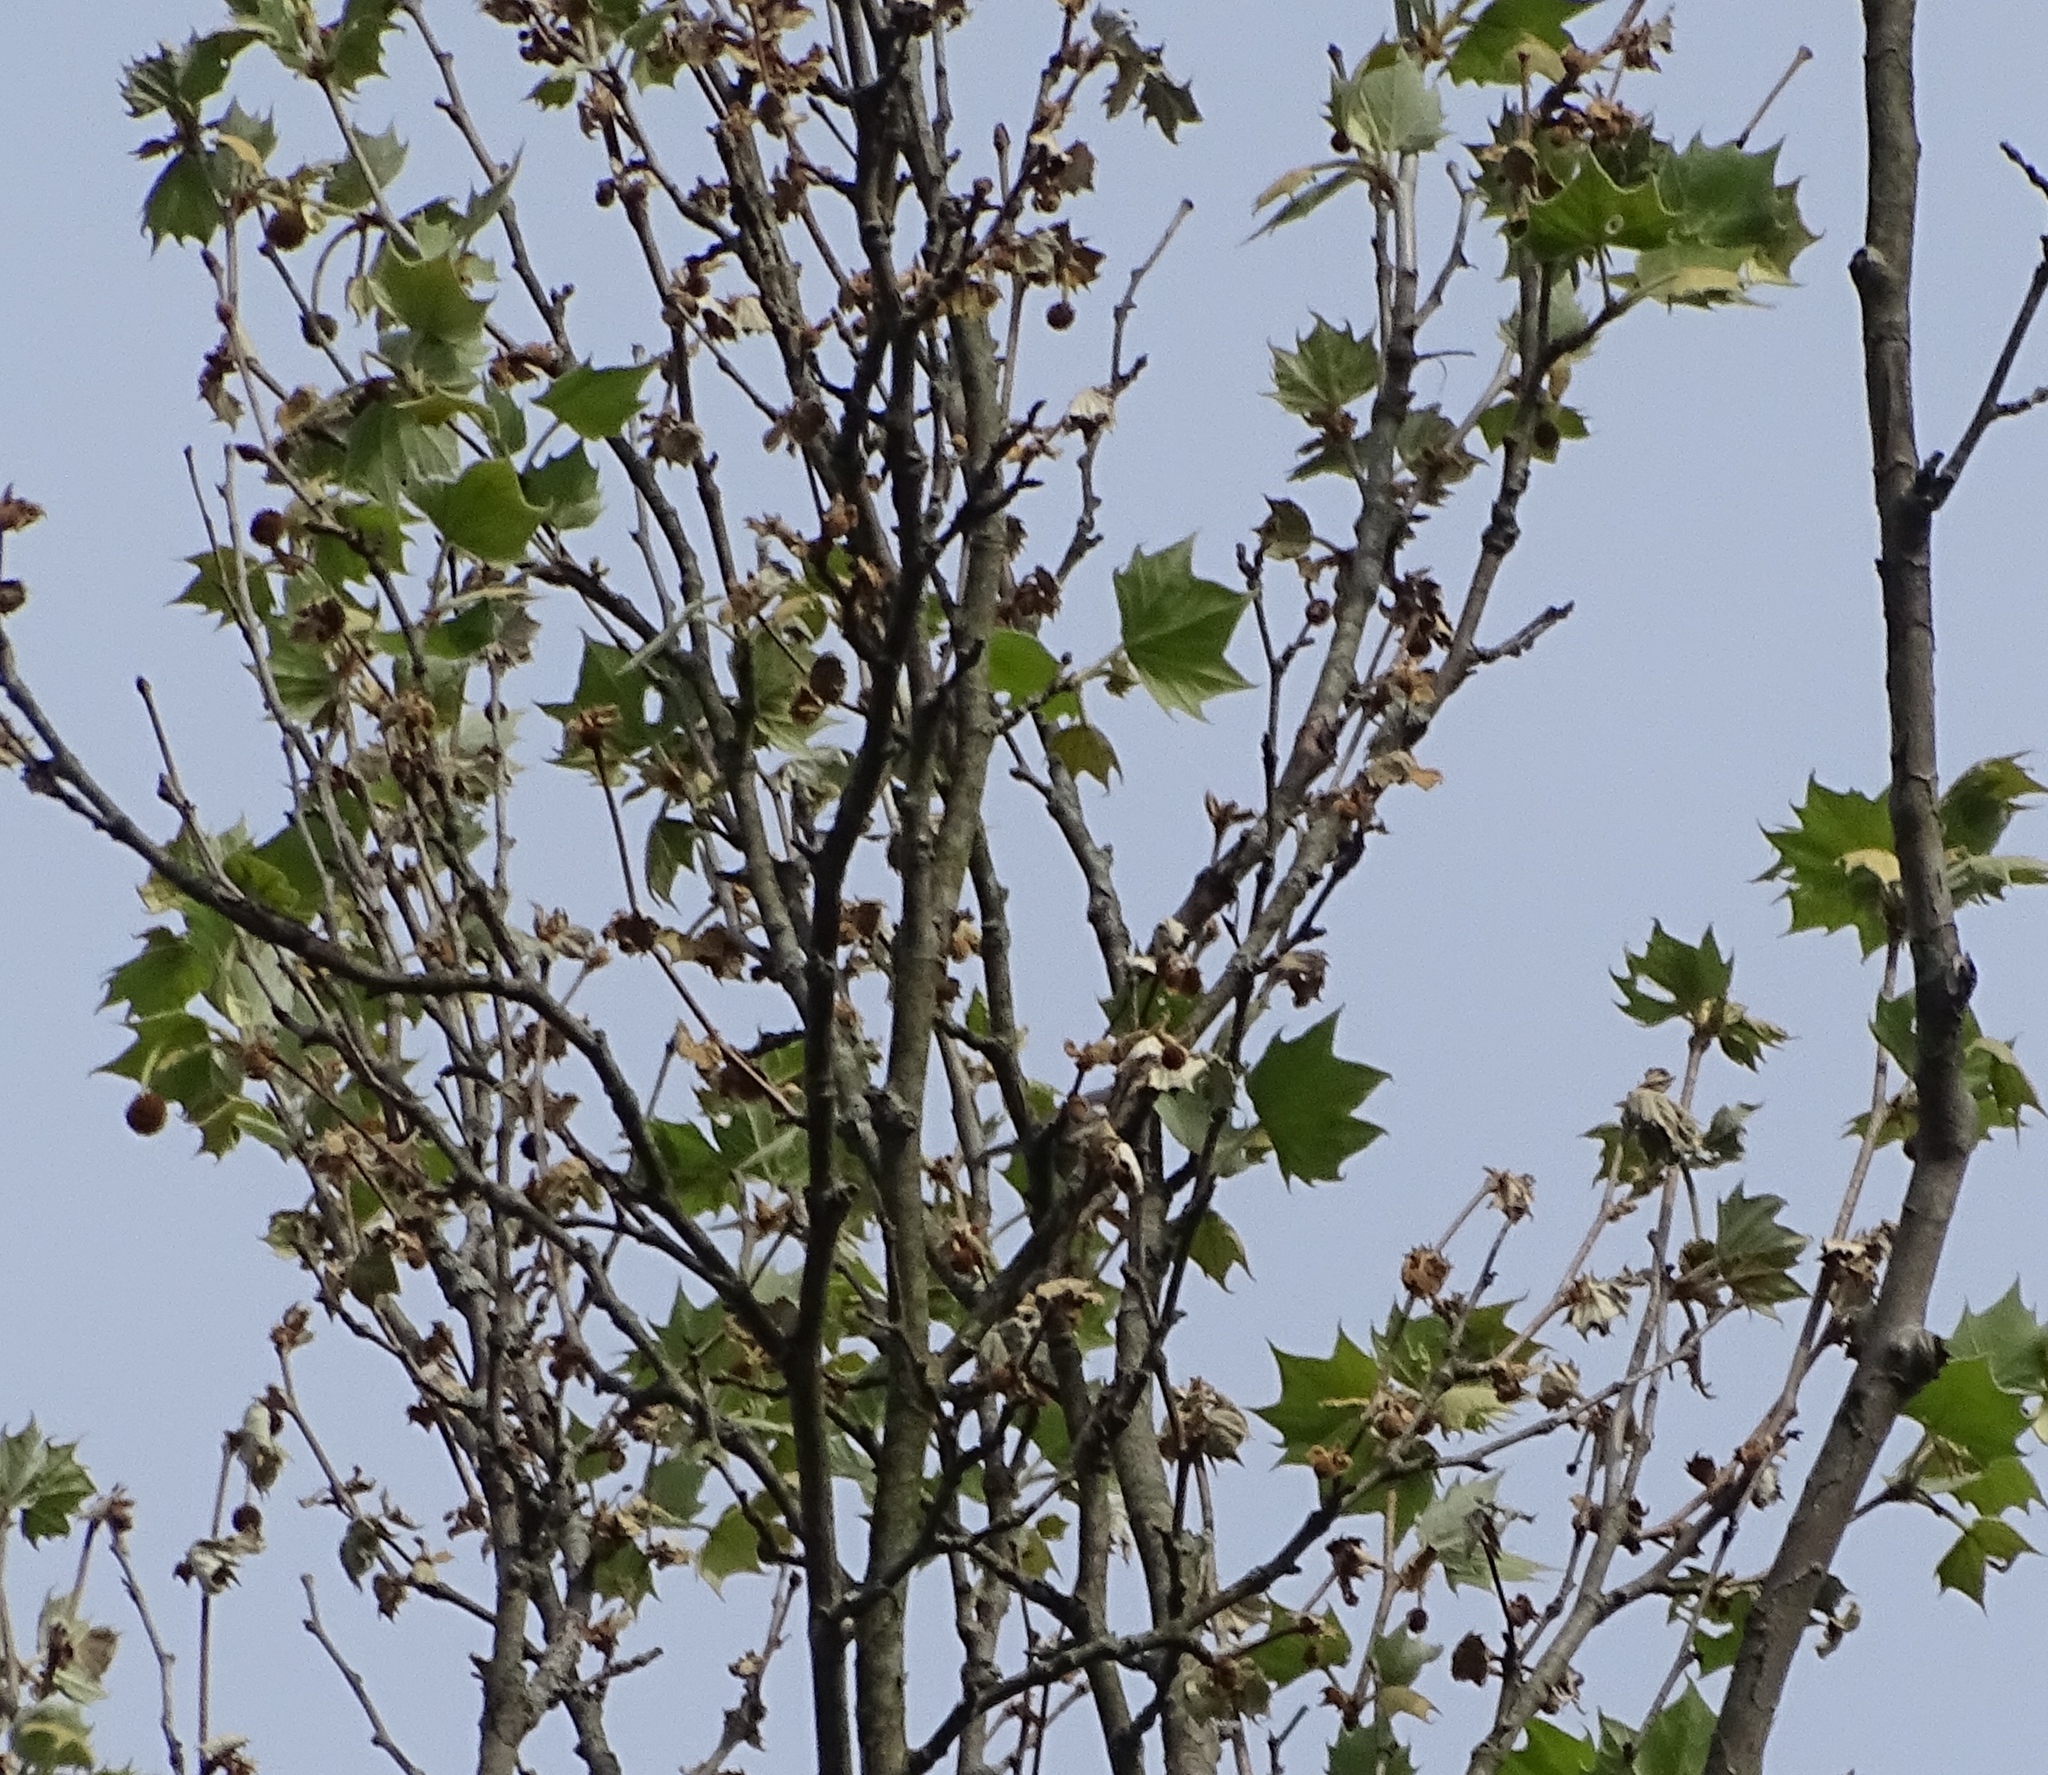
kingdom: Plantae
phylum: Tracheophyta
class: Magnoliopsida
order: Proteales
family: Platanaceae
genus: Platanus
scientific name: Platanus occidentalis
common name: American sycamore
